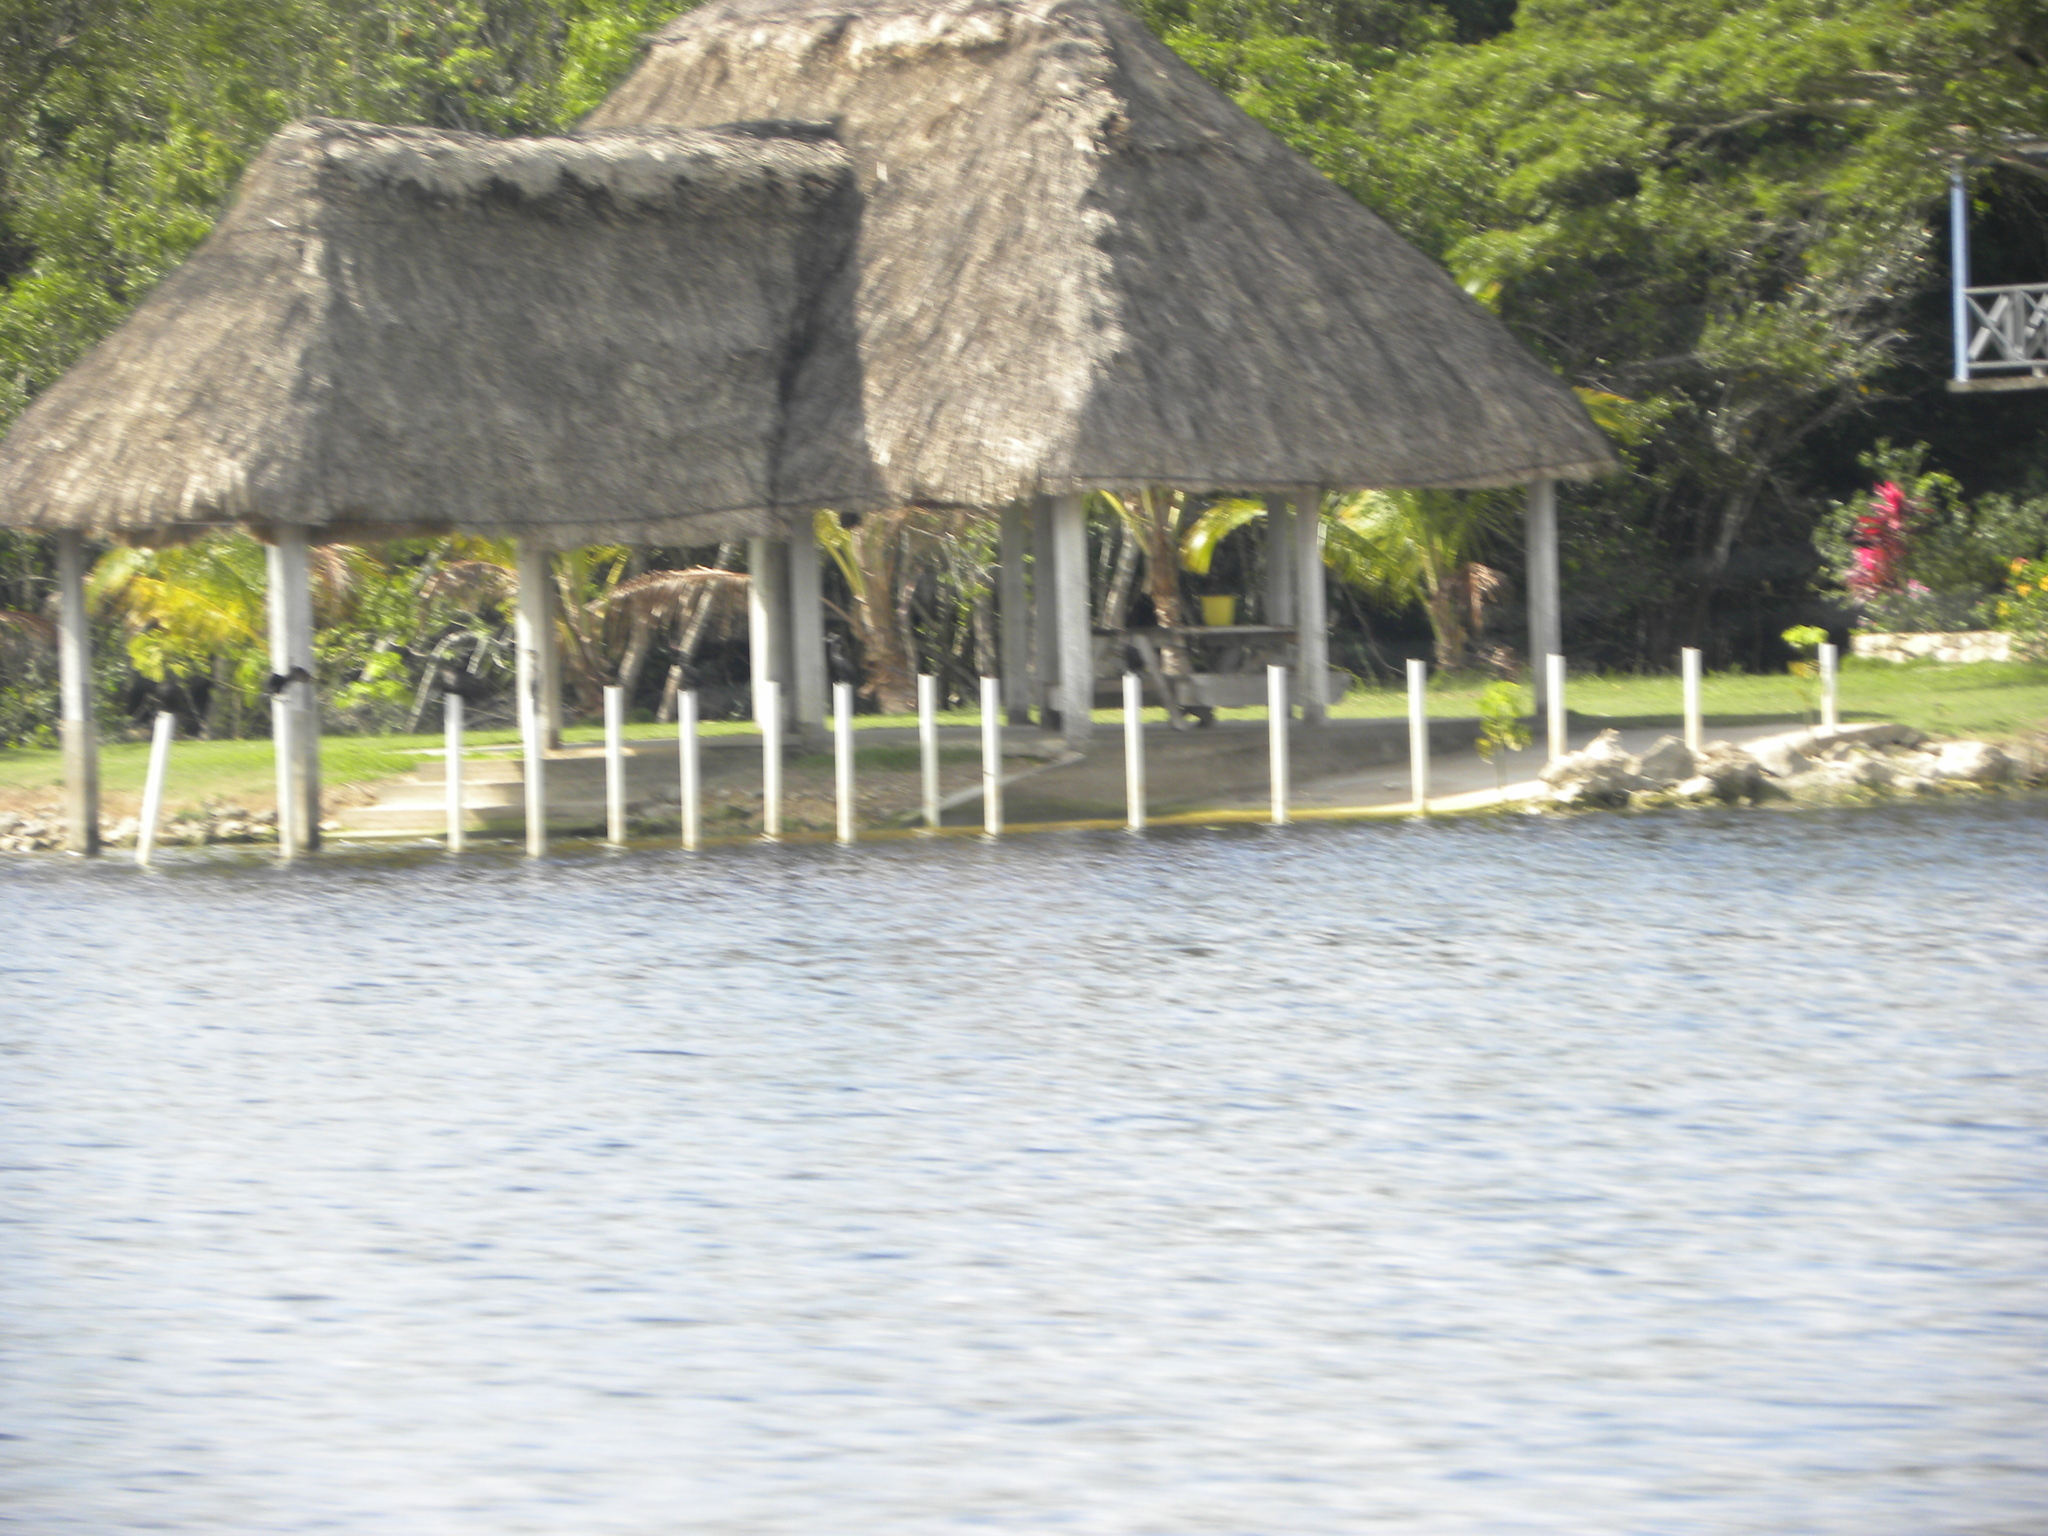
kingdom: Animalia
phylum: Chordata
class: Aves
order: Suliformes
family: Phalacrocoracidae
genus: Phalacrocorax
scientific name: Phalacrocorax brasilianus
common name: Neotropic cormorant
